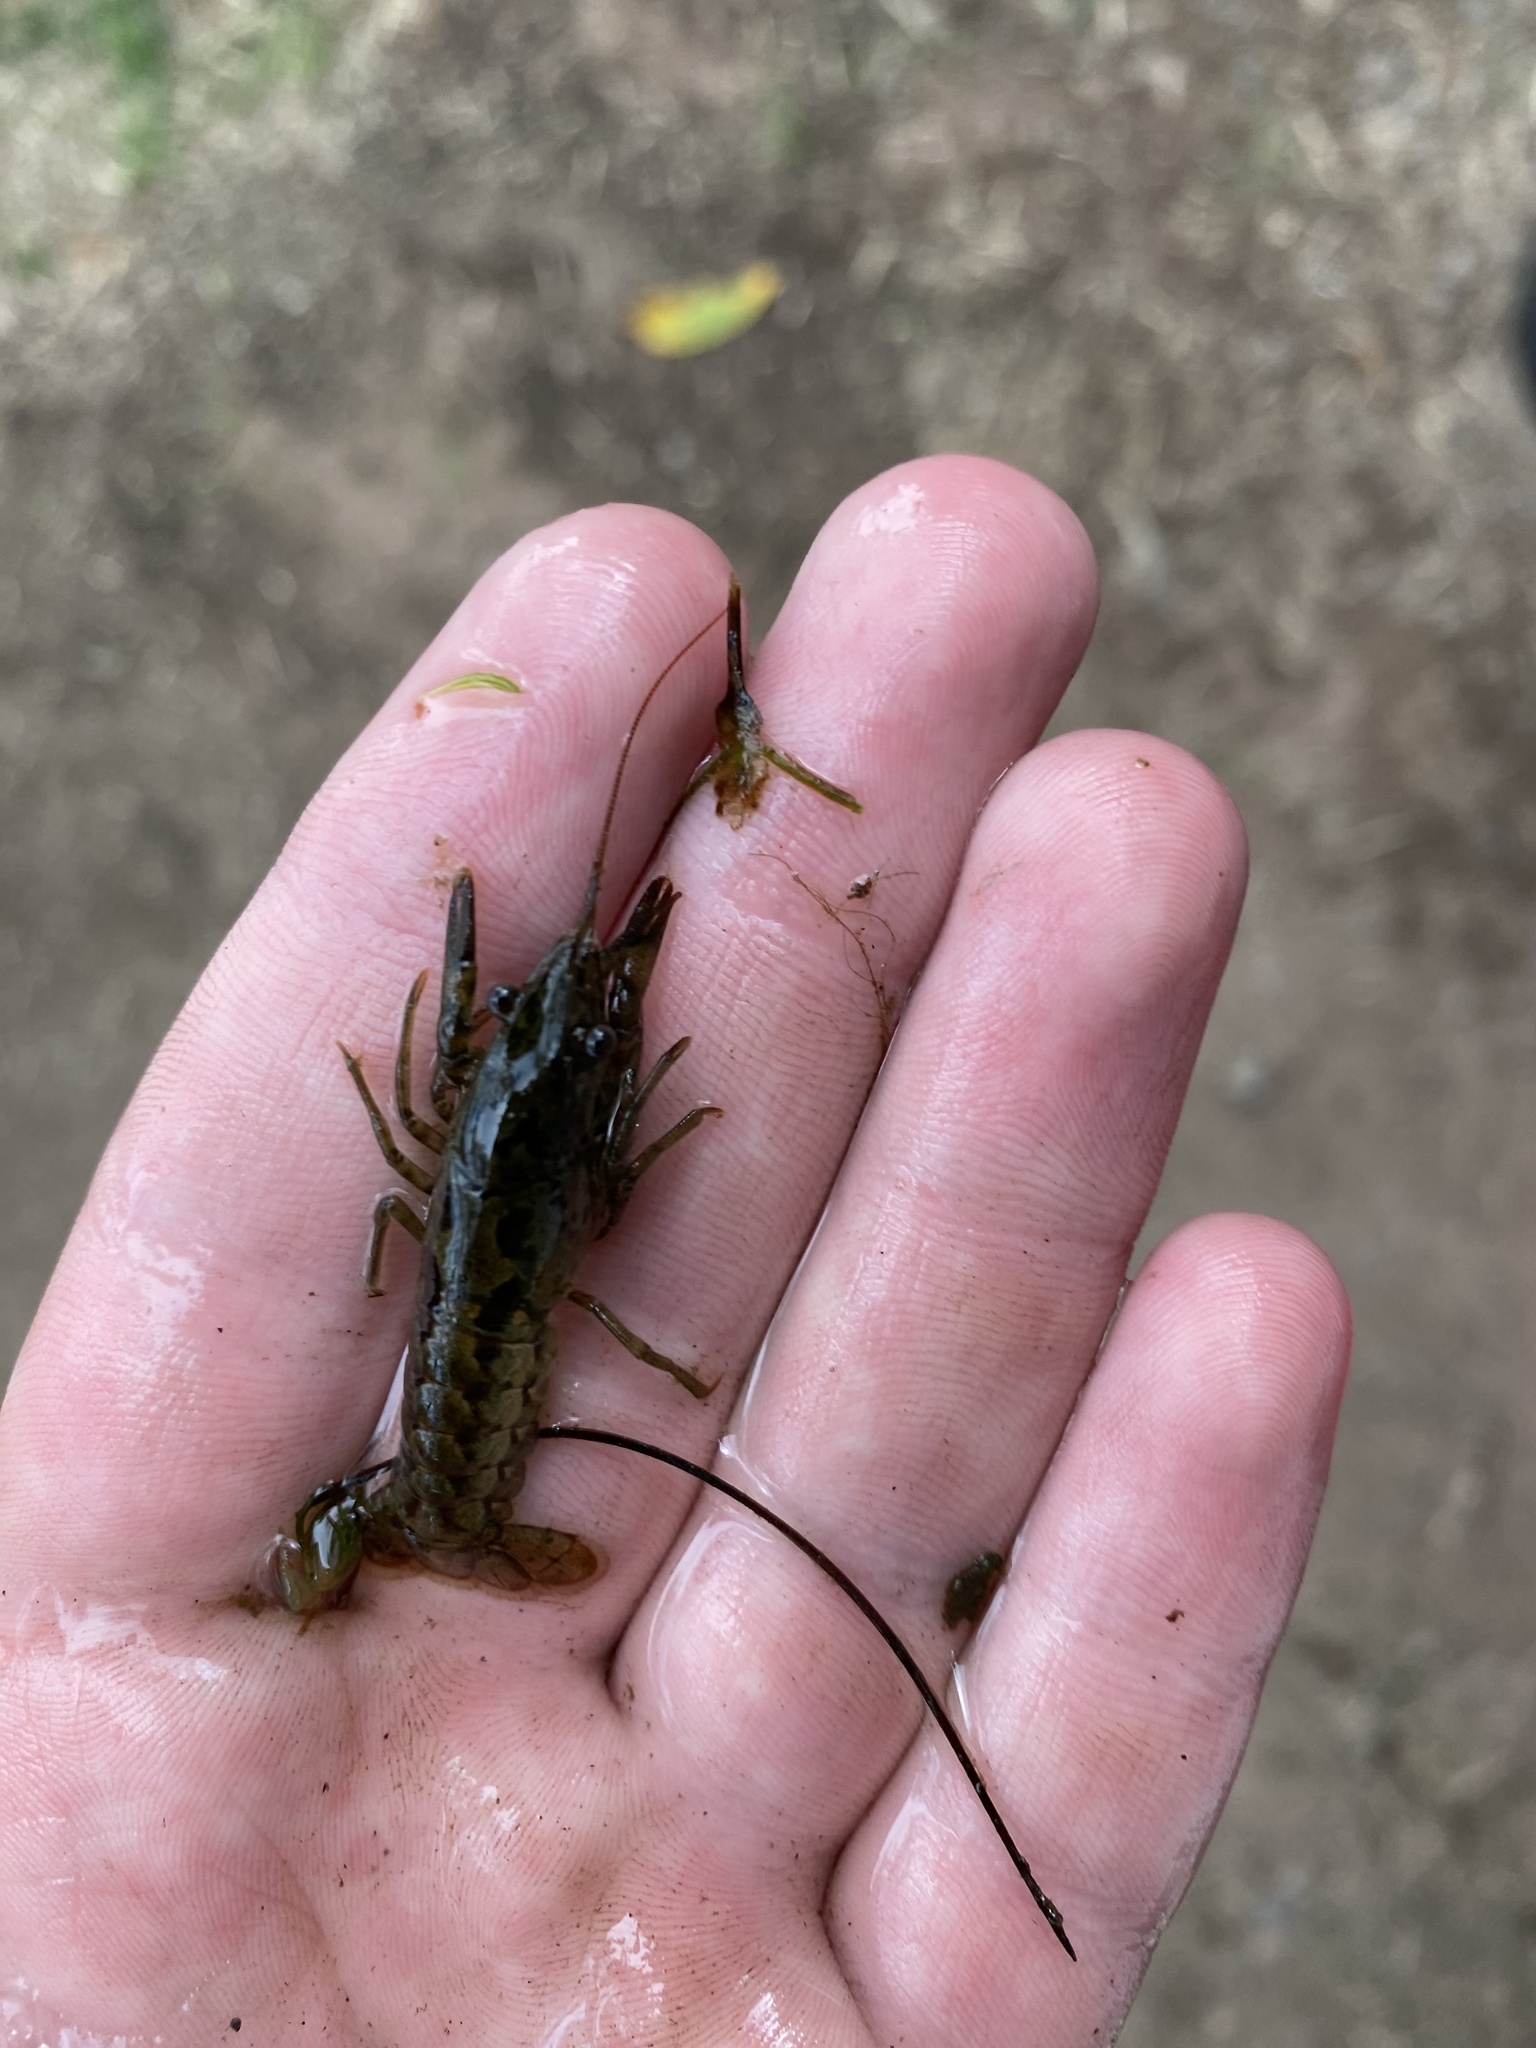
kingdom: Animalia
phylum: Arthropoda
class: Malacostraca
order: Decapoda
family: Cambaridae
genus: Faxonius
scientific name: Faxonius immunis
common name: Calico crayfish
